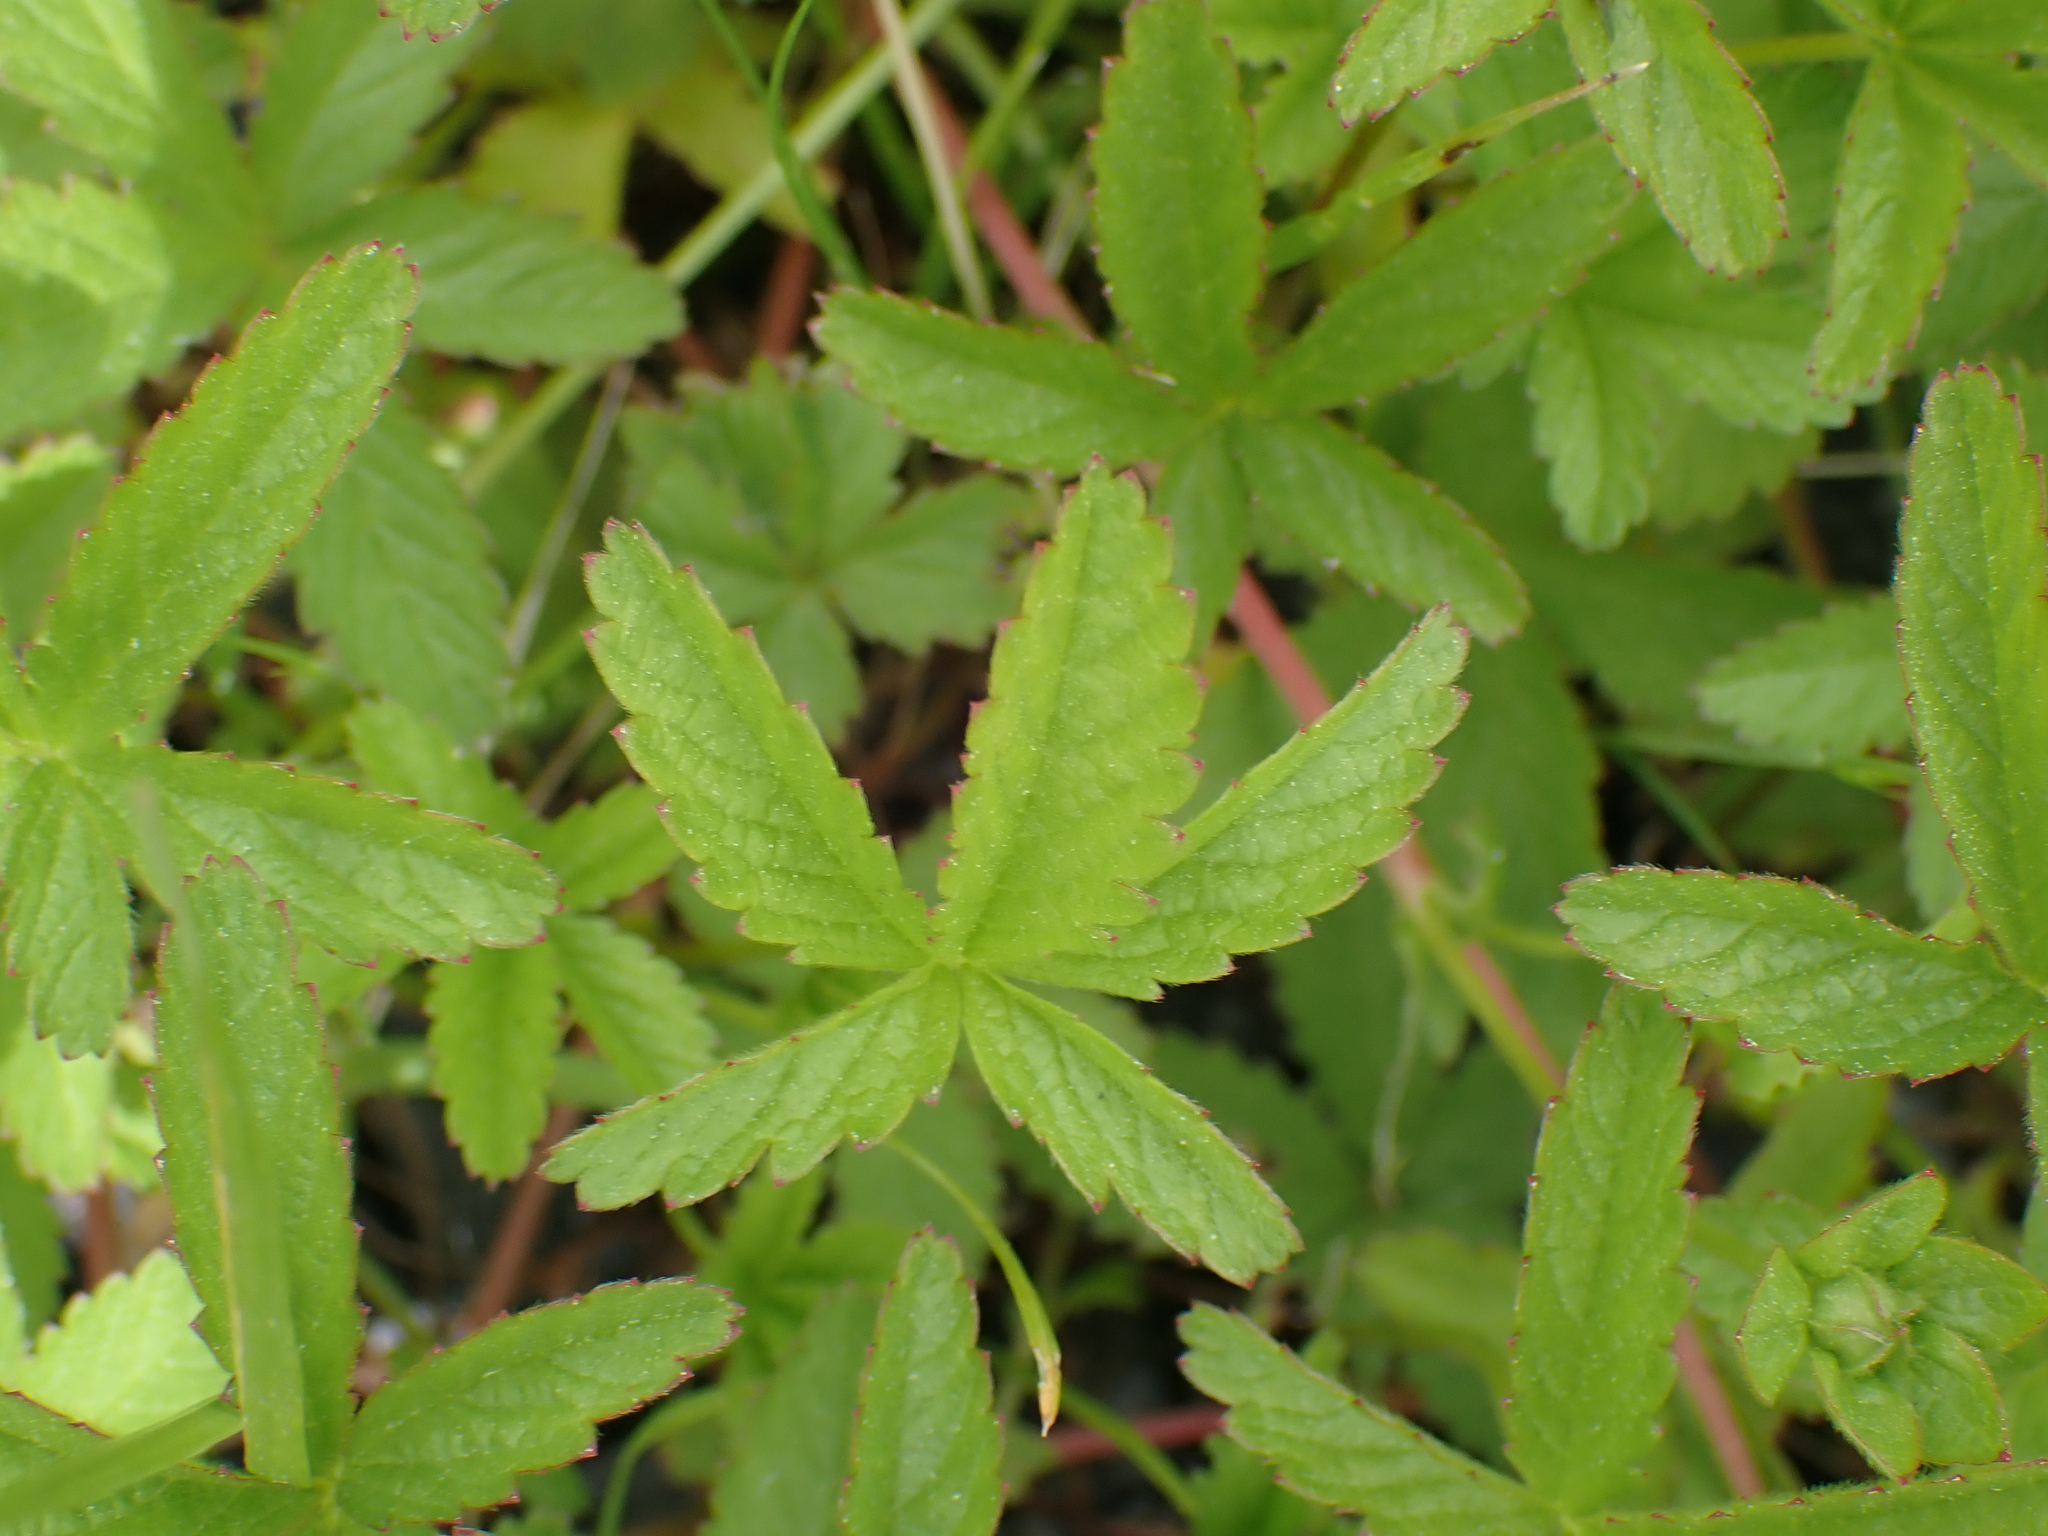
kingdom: Plantae
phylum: Tracheophyta
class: Magnoliopsida
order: Rosales
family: Rosaceae
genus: Potentilla
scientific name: Potentilla reptans
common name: Creeping cinquefoil
